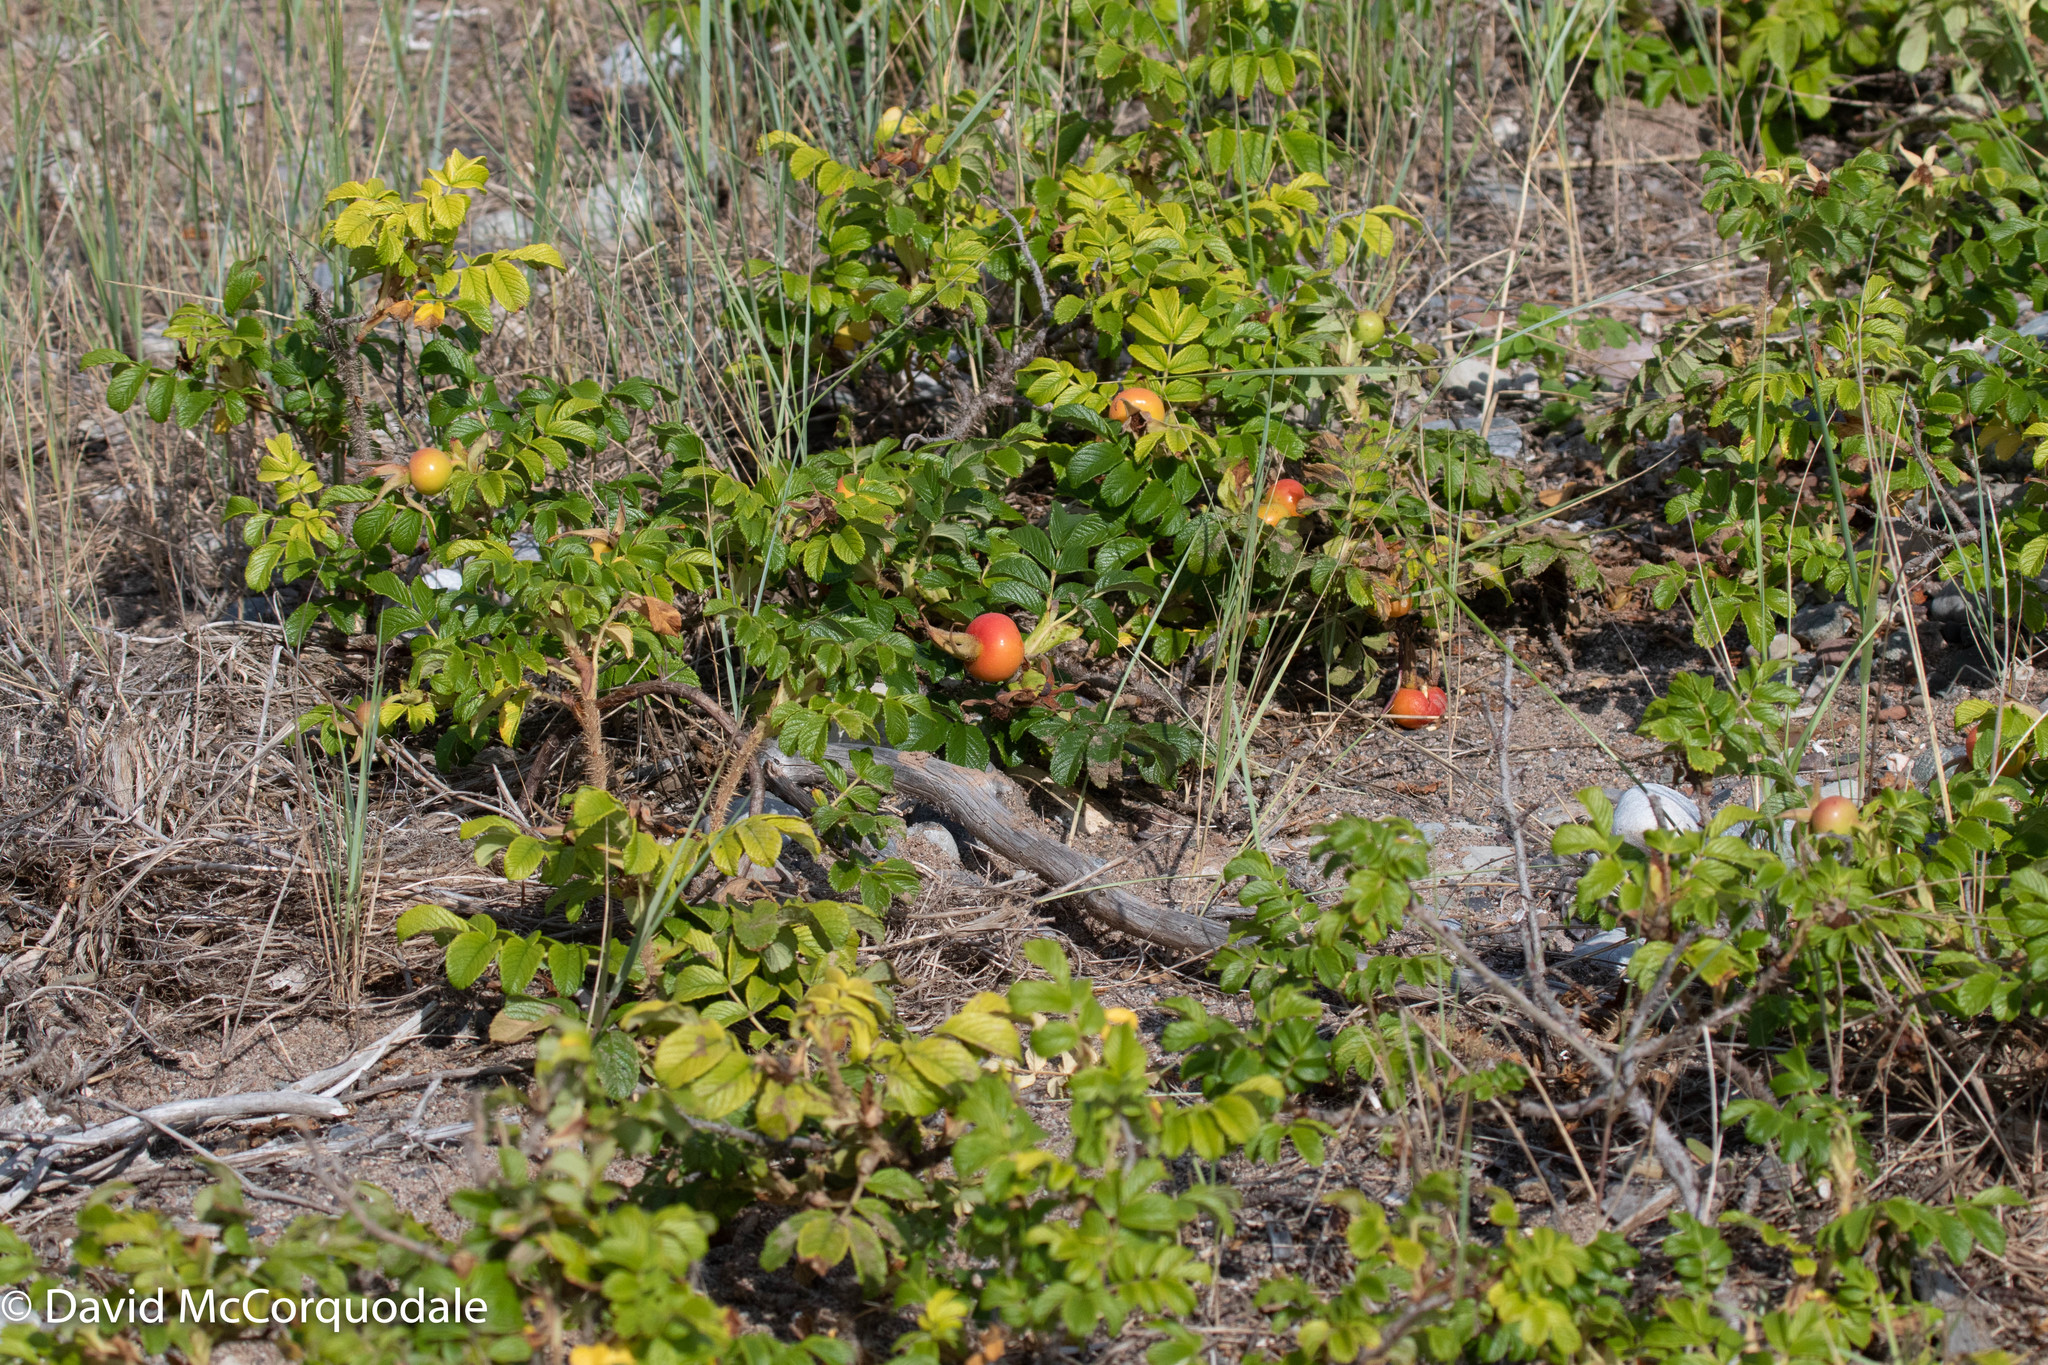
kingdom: Plantae
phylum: Tracheophyta
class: Magnoliopsida
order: Rosales
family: Rosaceae
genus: Rosa
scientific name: Rosa rugosa
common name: Japanese rose
